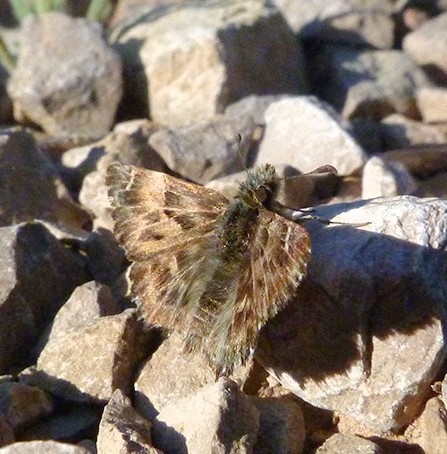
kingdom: Animalia
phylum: Arthropoda
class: Insecta
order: Lepidoptera
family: Hesperiidae
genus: Carcharodus
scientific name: Carcharodus alceae
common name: Mallow skipper
